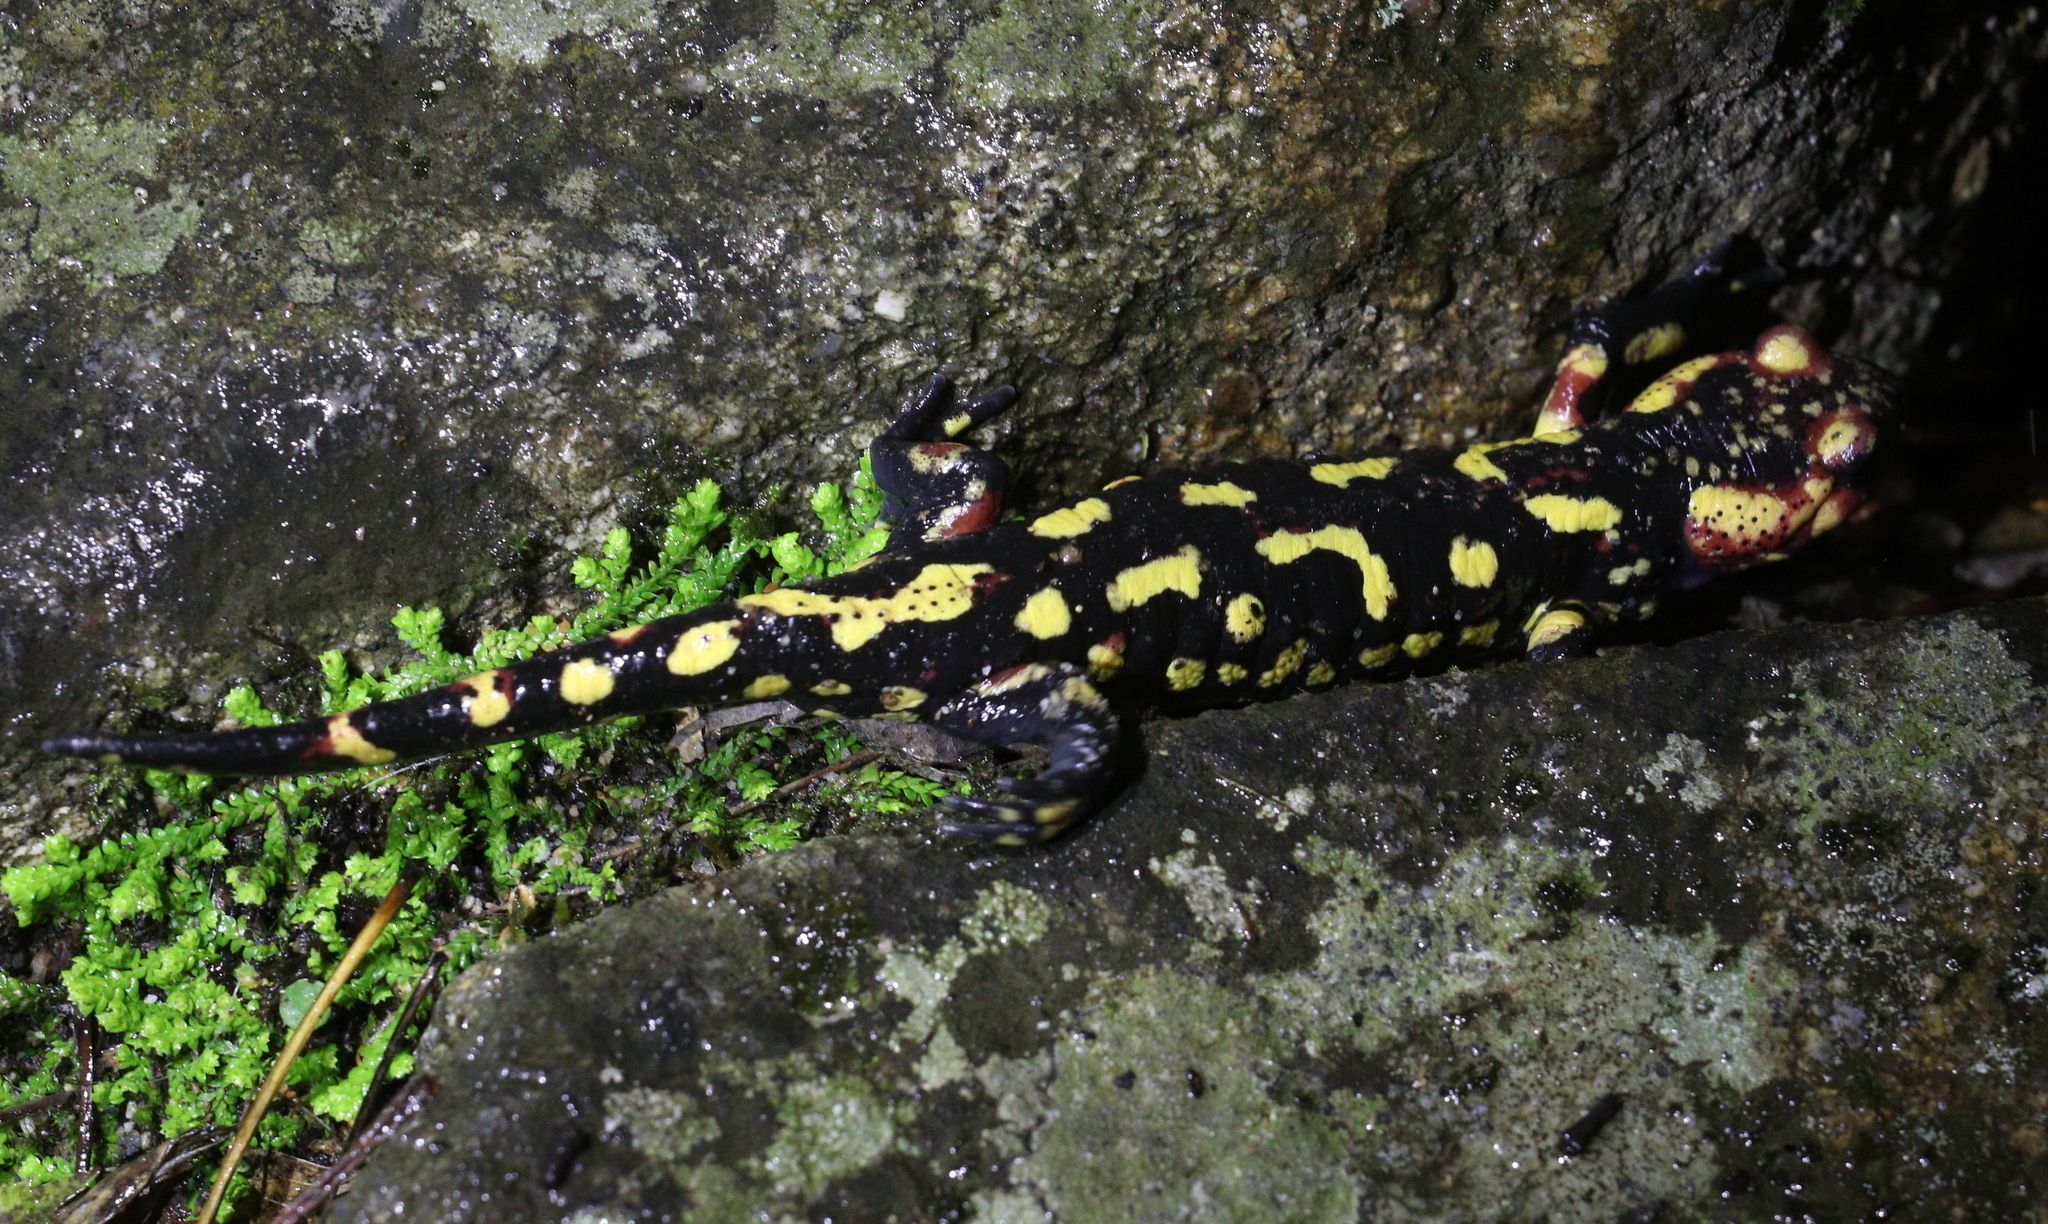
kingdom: Animalia
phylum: Chordata
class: Amphibia
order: Caudata
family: Salamandridae
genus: Salamandra
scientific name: Salamandra salamandra
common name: Fire salamander
